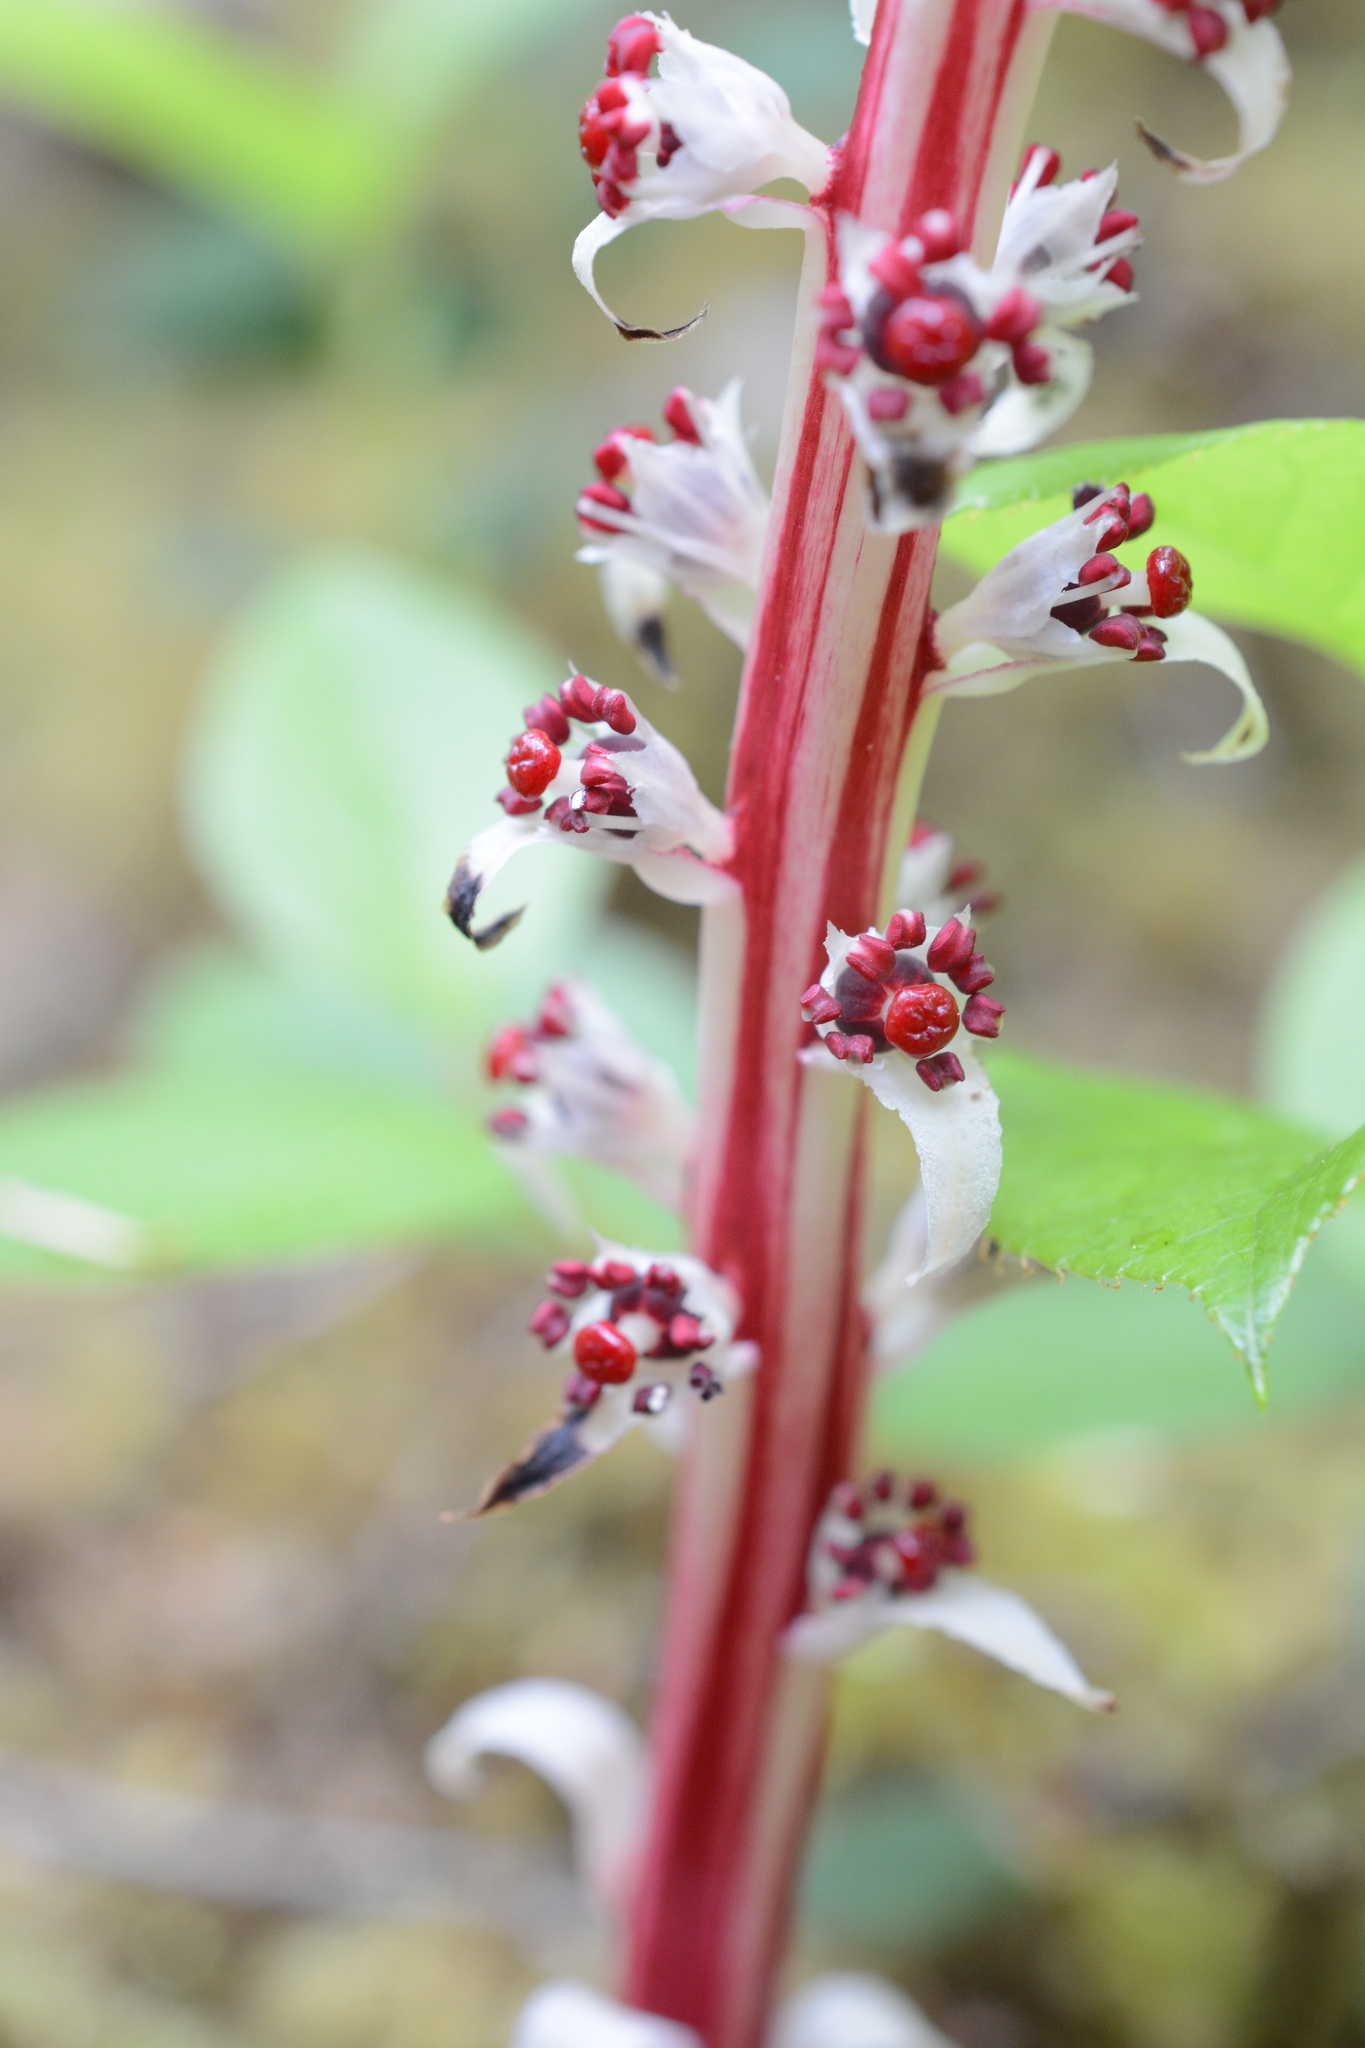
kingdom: Plantae
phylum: Tracheophyta
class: Magnoliopsida
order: Ericales
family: Ericaceae
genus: Allotropa
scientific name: Allotropa virgata
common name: Candy-striped allotropa
